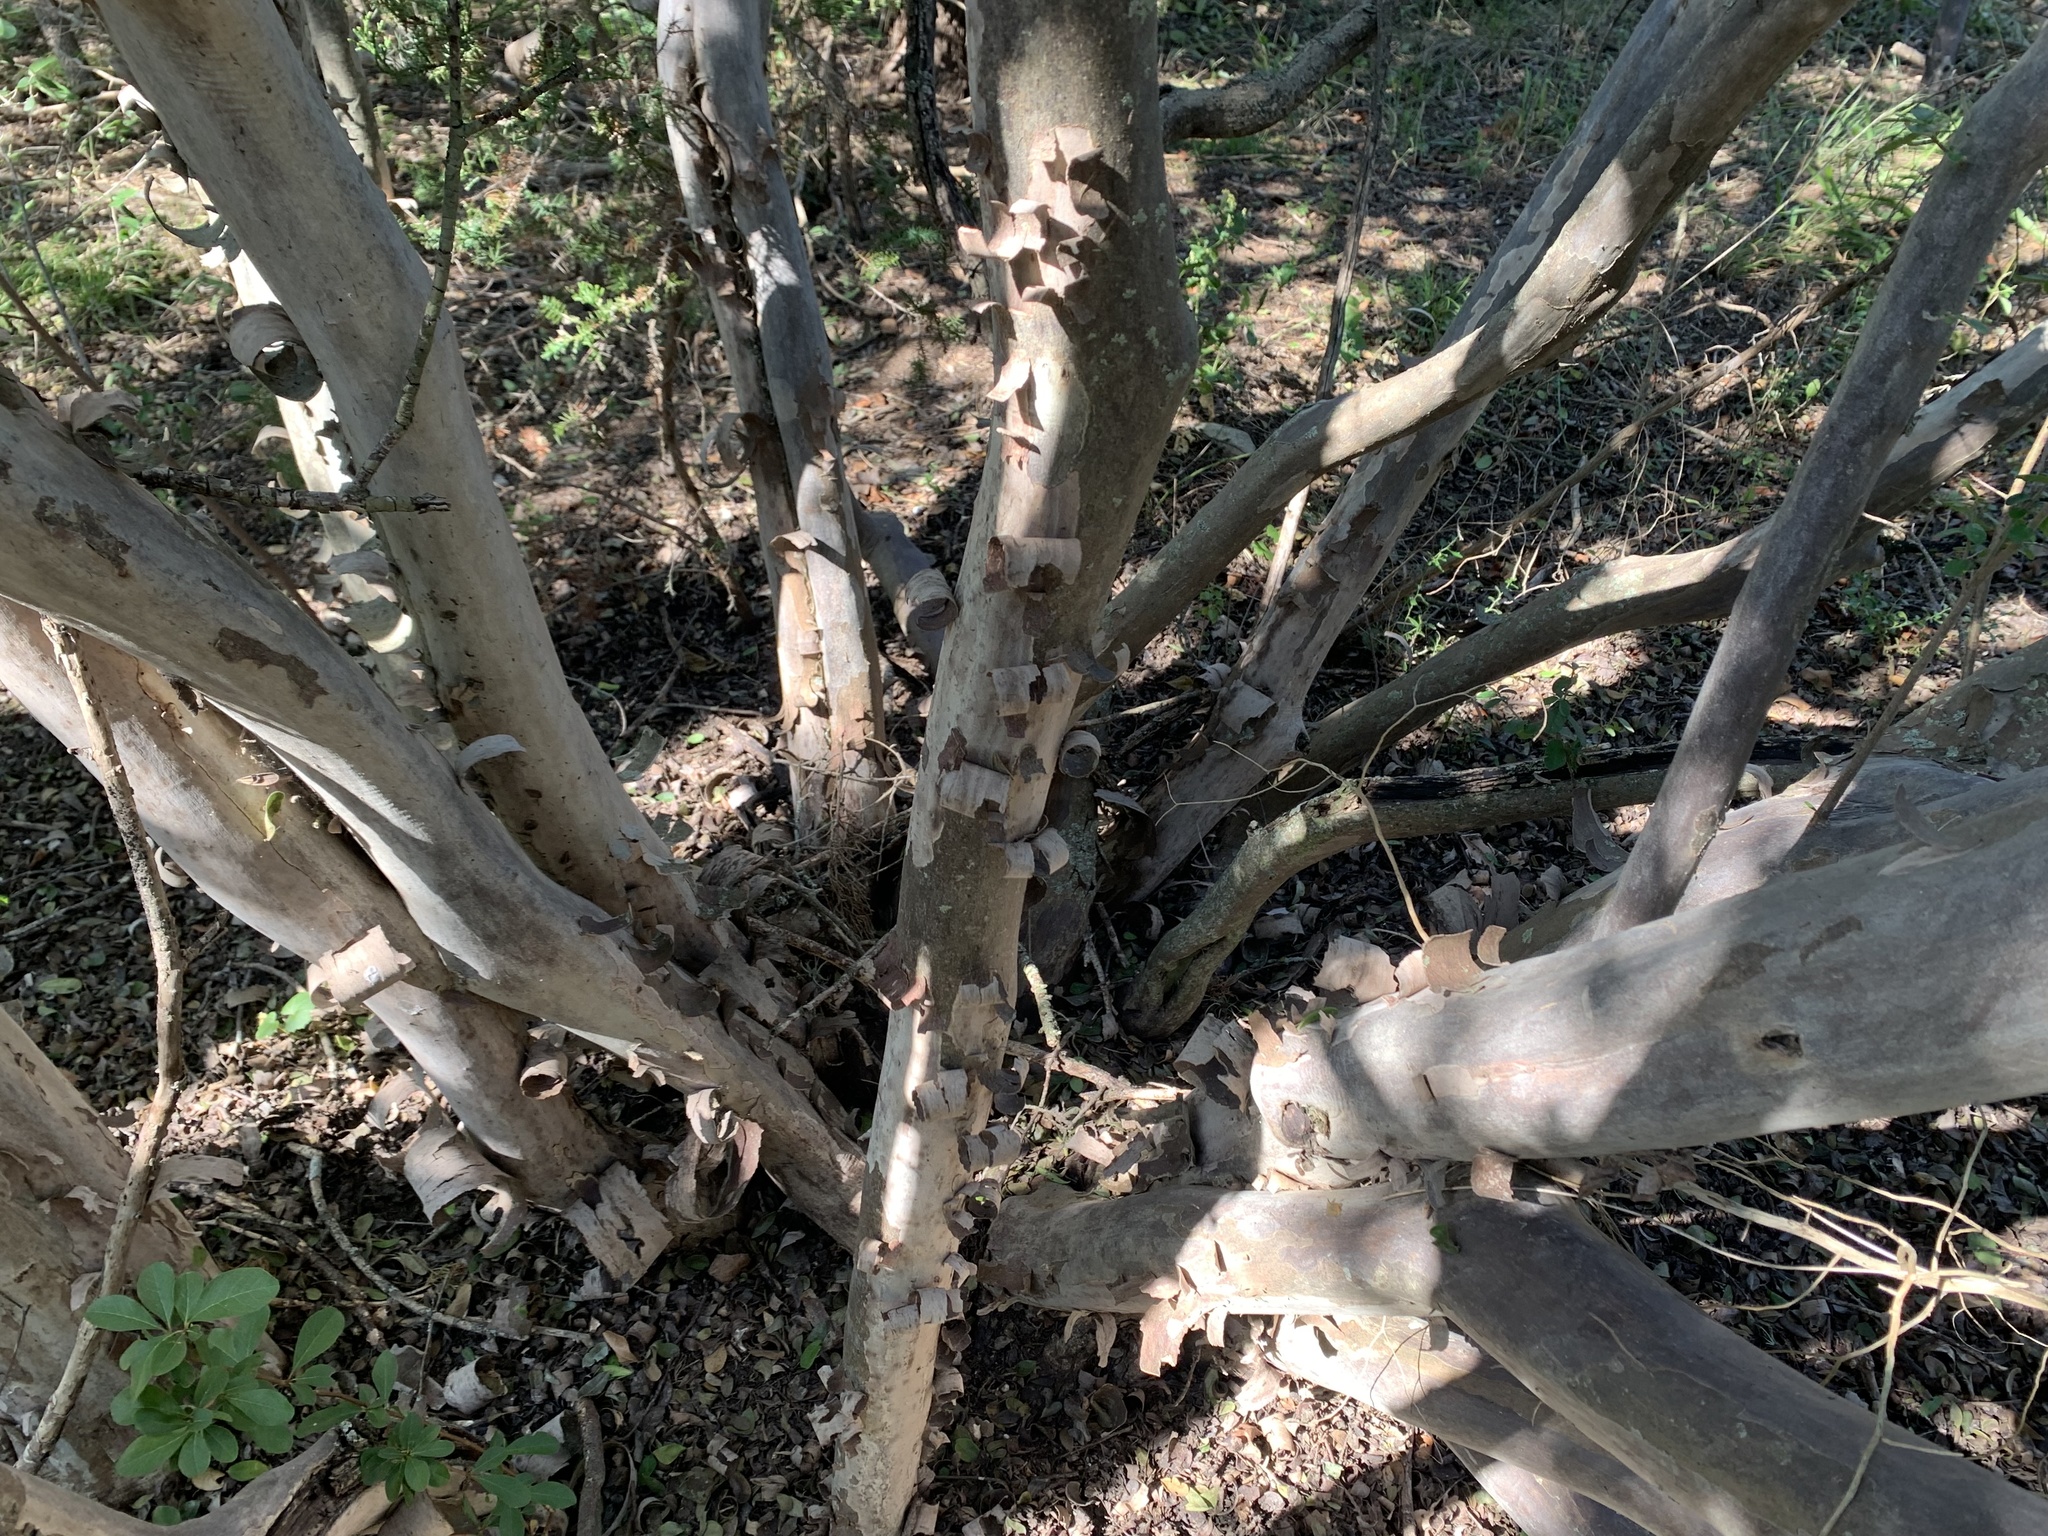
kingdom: Plantae
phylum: Tracheophyta
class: Magnoliopsida
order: Ericales
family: Ebenaceae
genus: Diospyros
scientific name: Diospyros texana
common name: Texas persimmon
